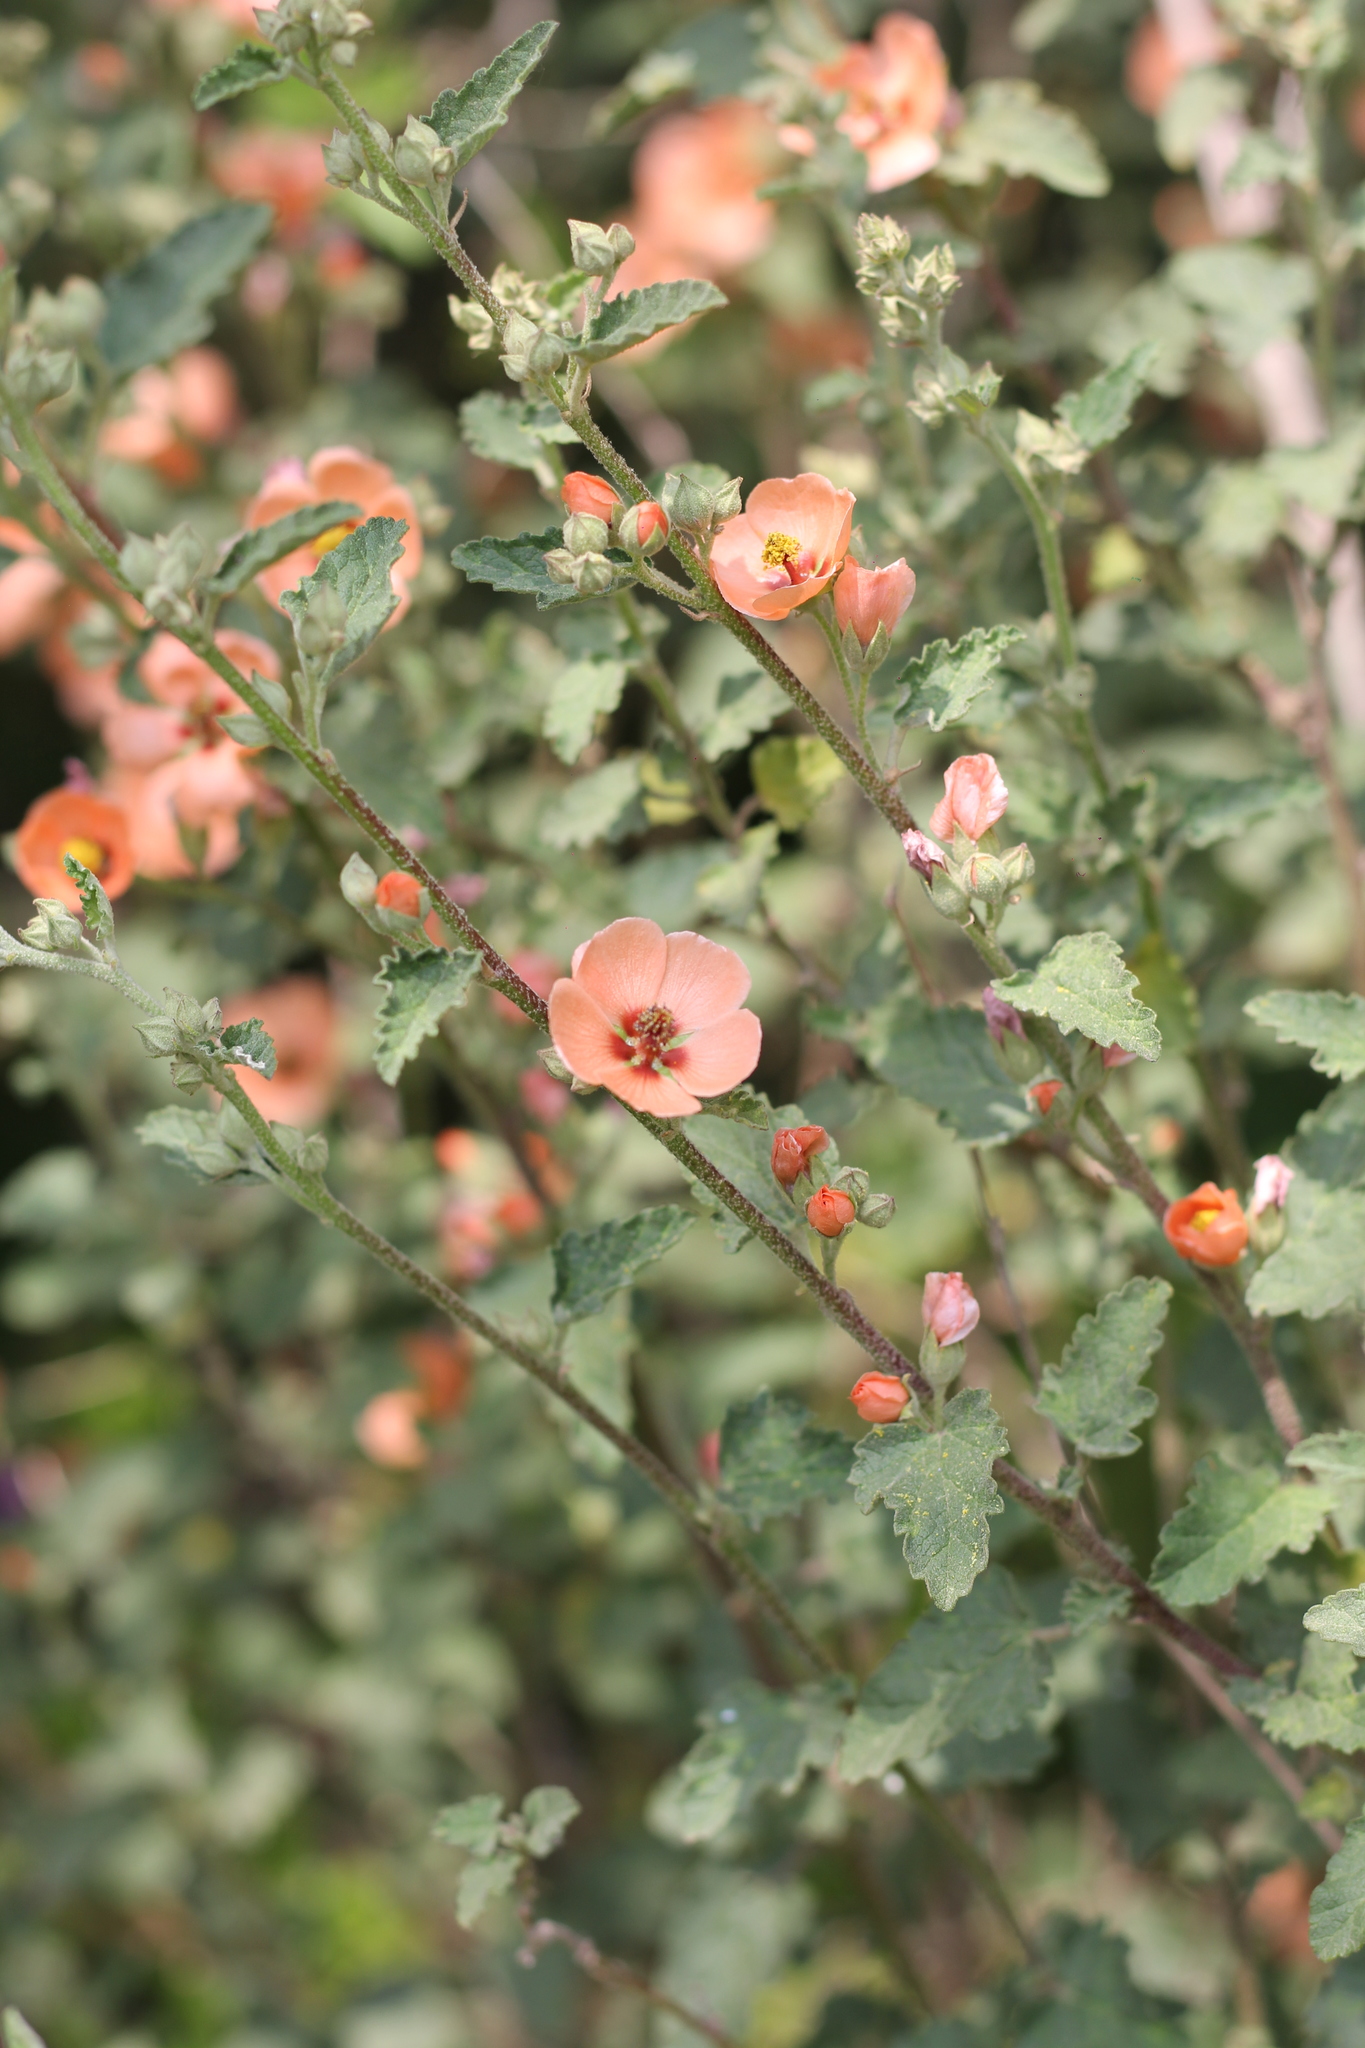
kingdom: Plantae
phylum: Tracheophyta
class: Magnoliopsida
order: Malvales
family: Malvaceae
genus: Sphaeralcea
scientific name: Sphaeralcea bonariensis
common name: Latin globemallow
